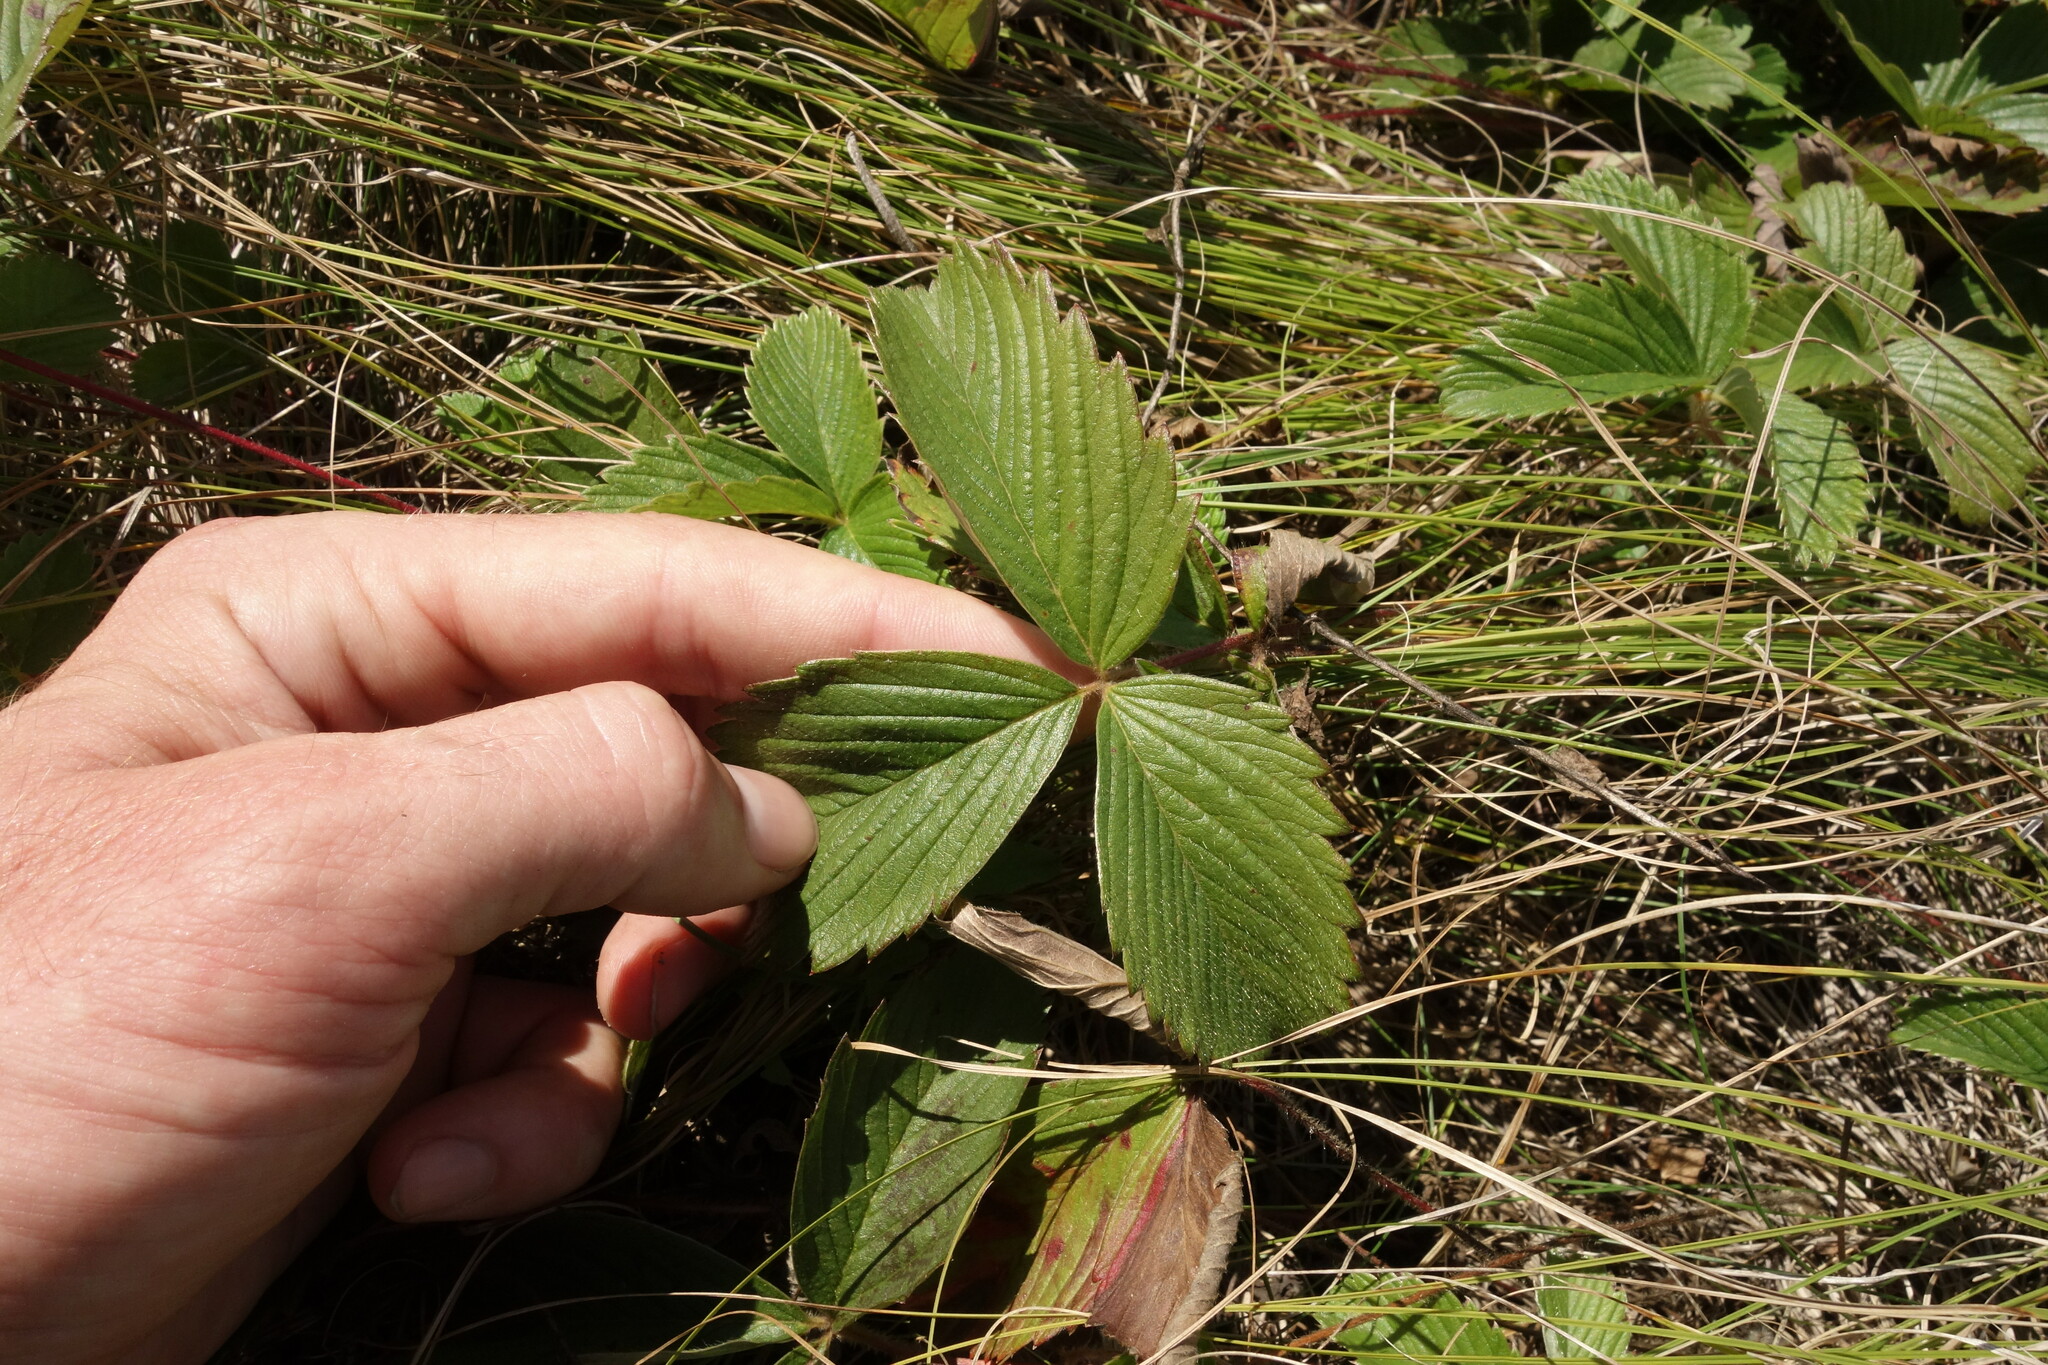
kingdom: Plantae
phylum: Tracheophyta
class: Magnoliopsida
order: Rosales
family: Rosaceae
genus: Fragaria
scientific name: Fragaria viridis
